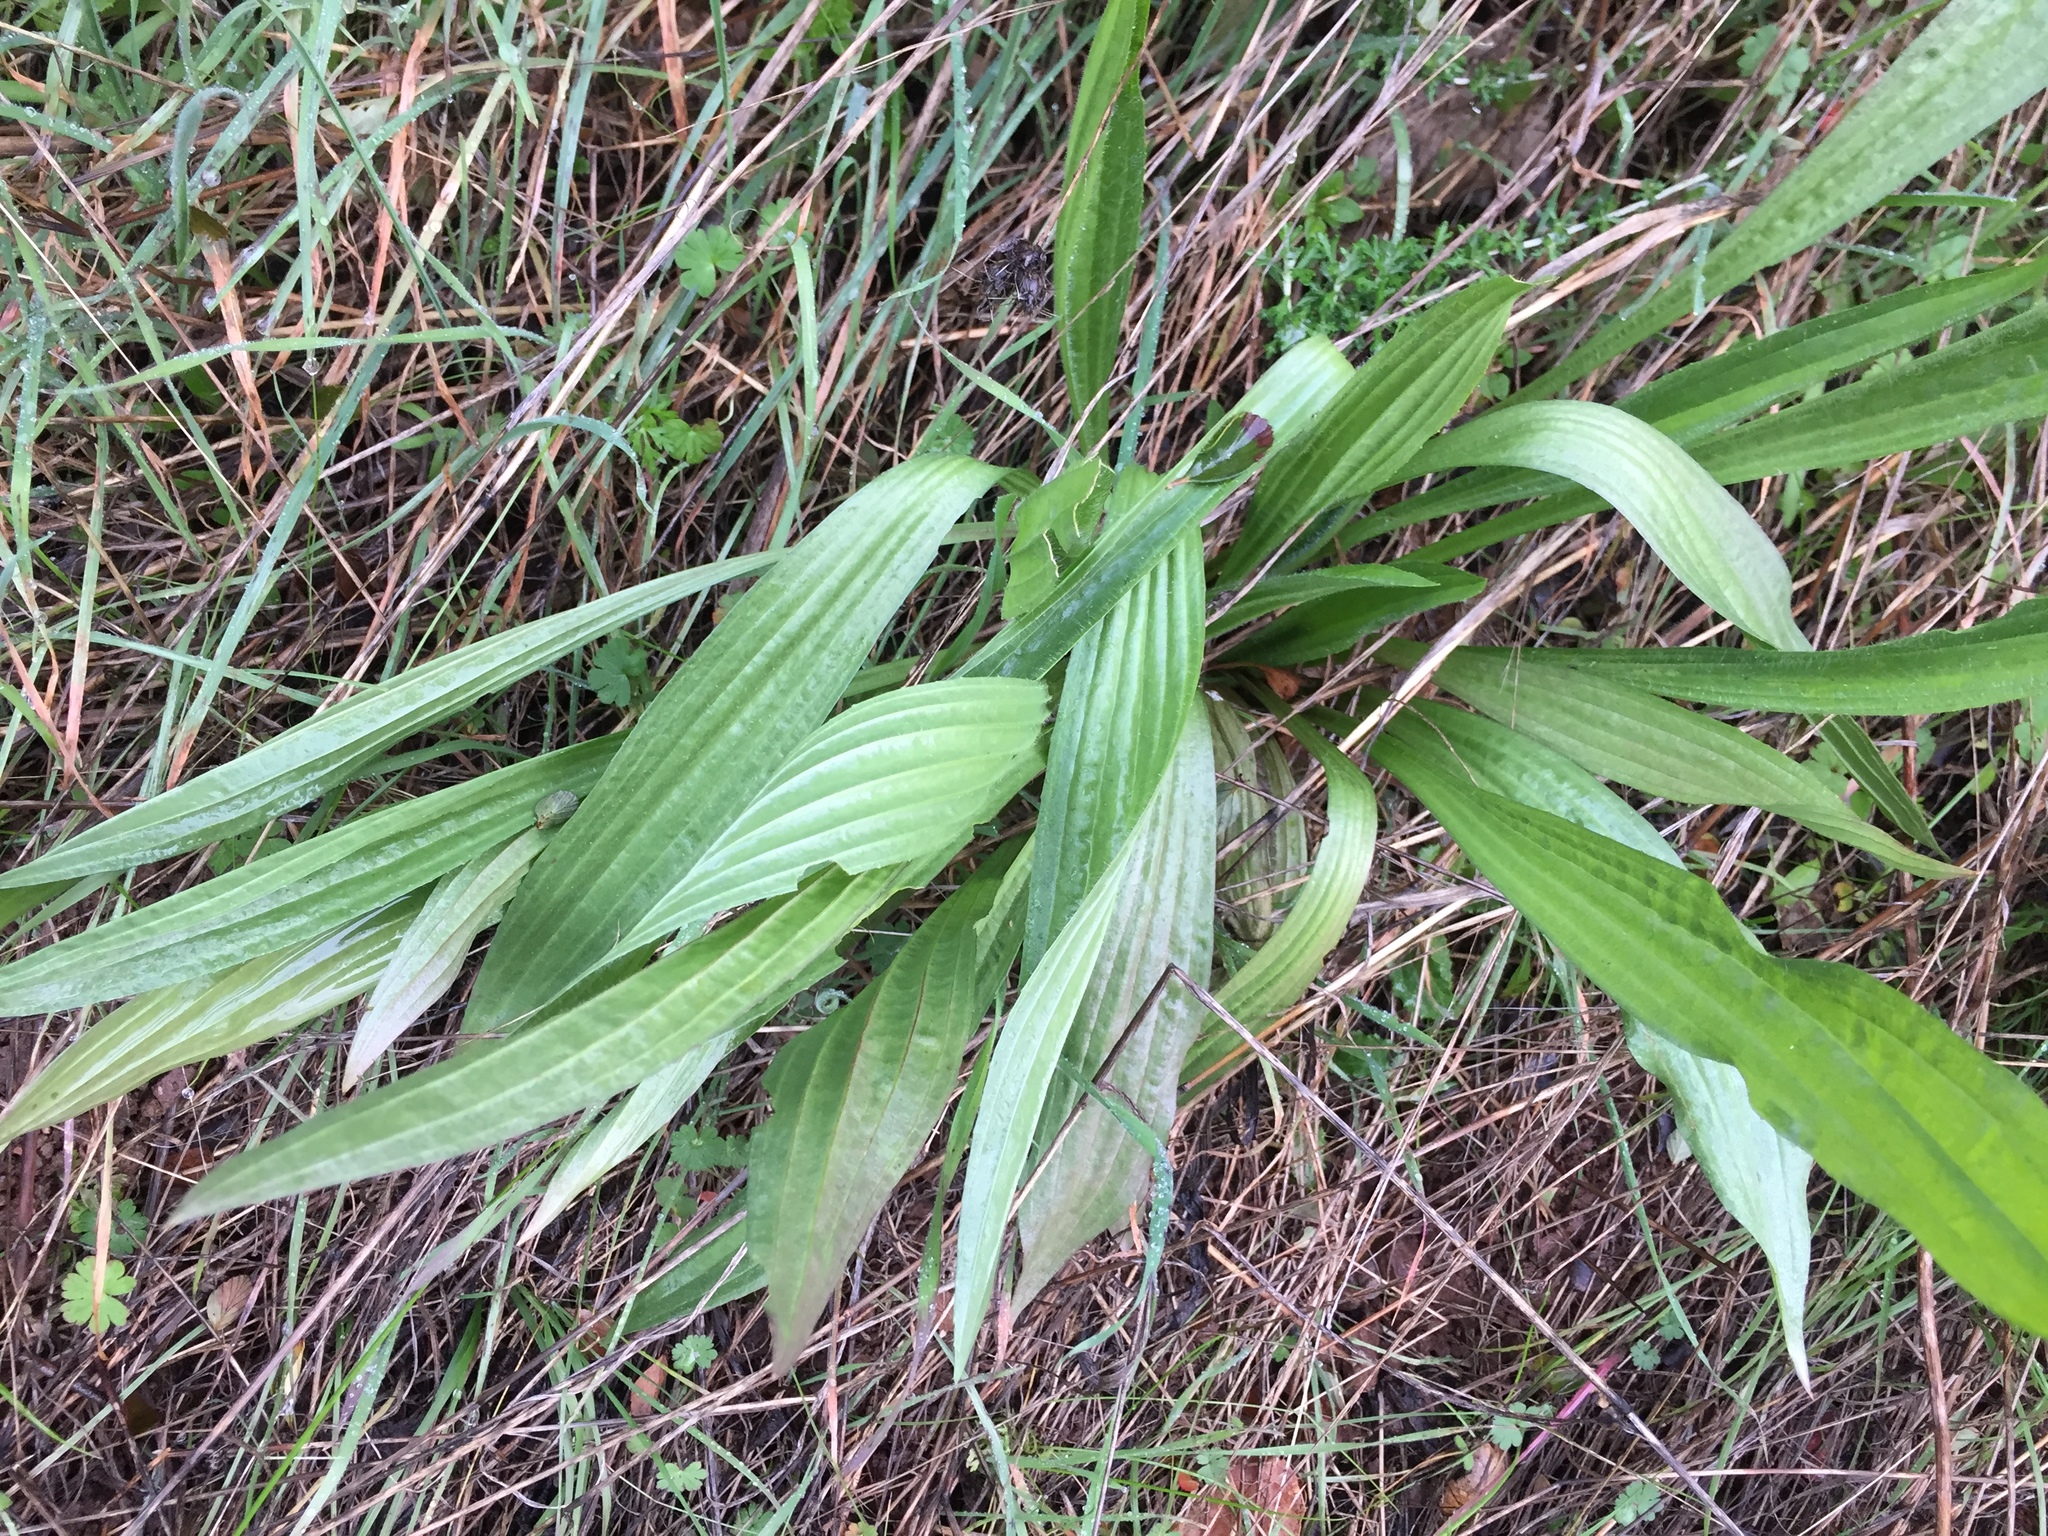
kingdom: Plantae
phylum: Tracheophyta
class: Magnoliopsida
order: Lamiales
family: Plantaginaceae
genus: Plantago
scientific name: Plantago lanceolata
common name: Ribwort plantain
